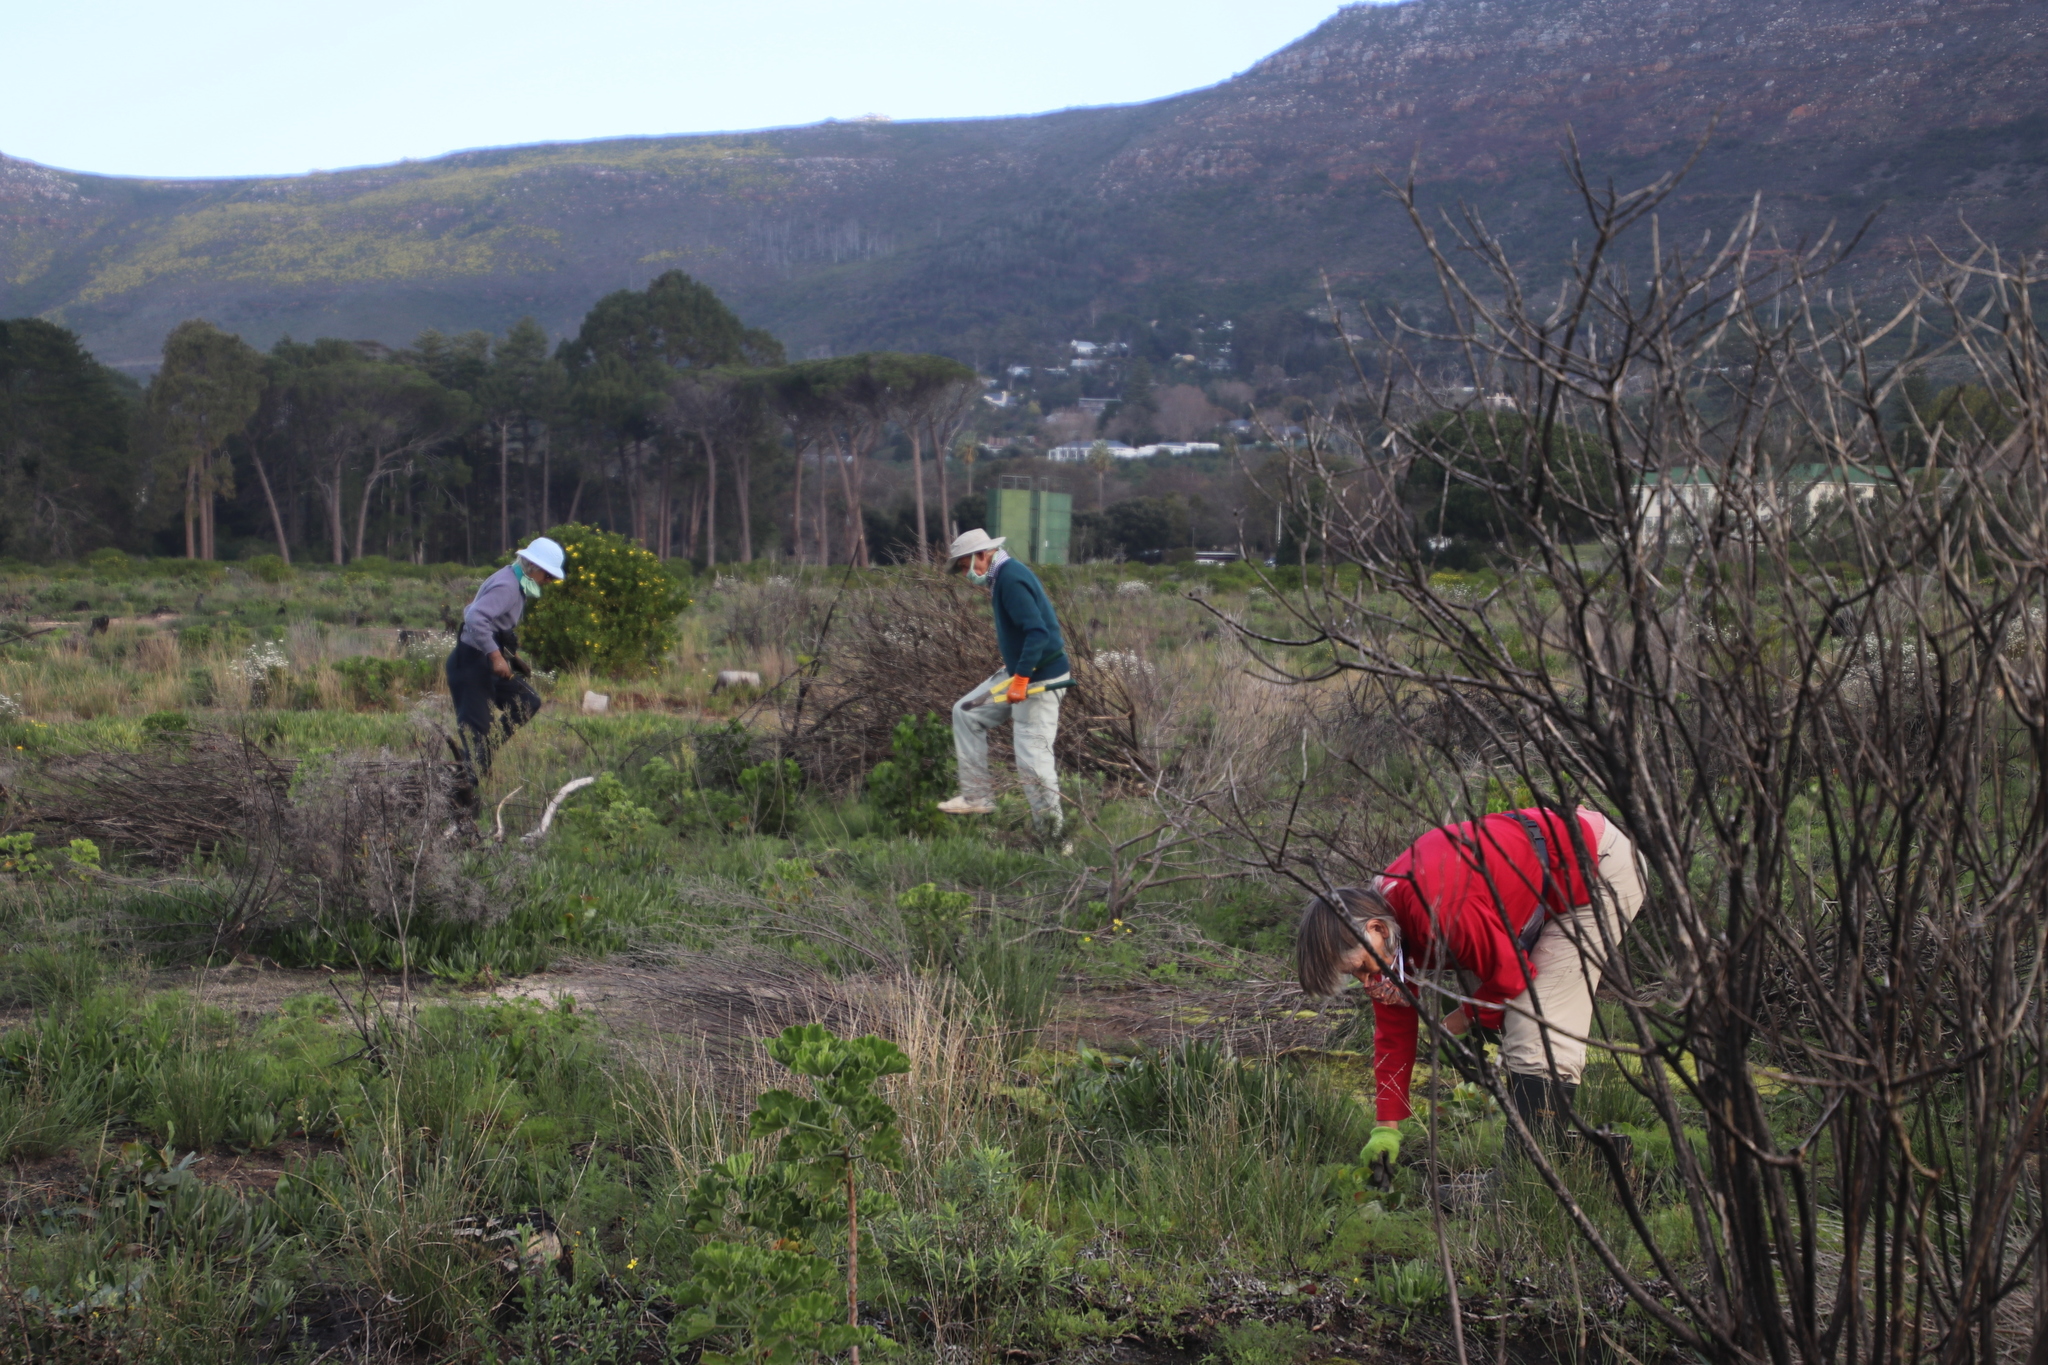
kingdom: Plantae
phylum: Tracheophyta
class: Magnoliopsida
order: Asterales
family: Asteraceae
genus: Senecio
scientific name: Senecio pterophorus
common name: Shoddy ragwort
